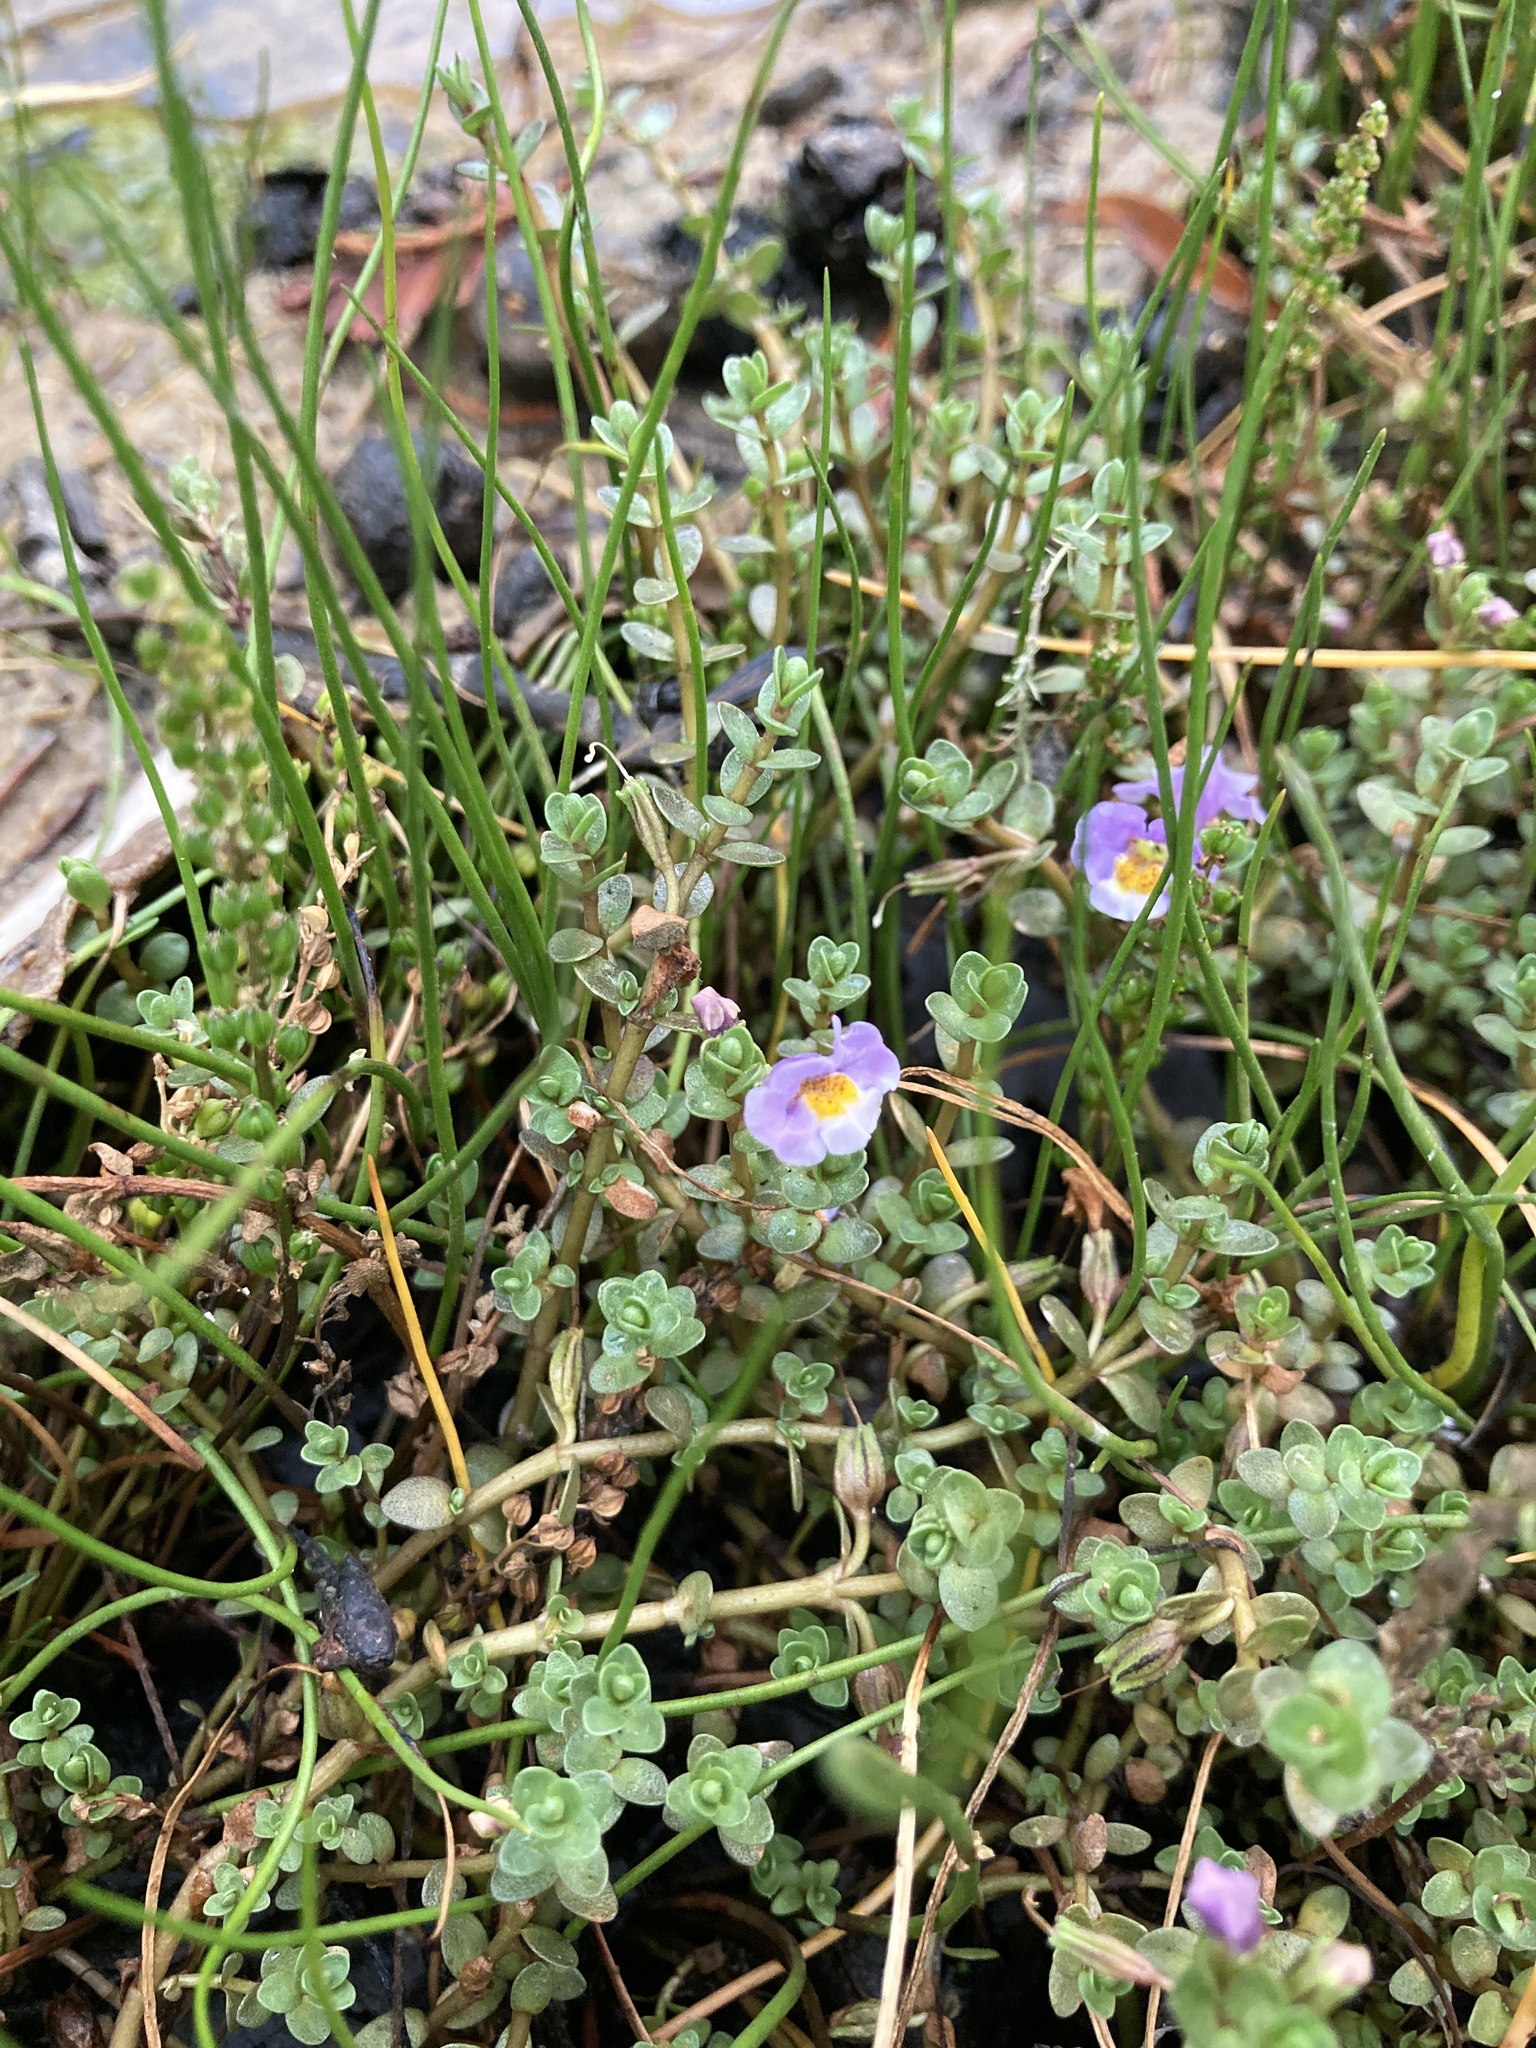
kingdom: Plantae
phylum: Tracheophyta
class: Magnoliopsida
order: Lamiales
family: Phrymaceae
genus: Thyridia
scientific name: Thyridia repens
